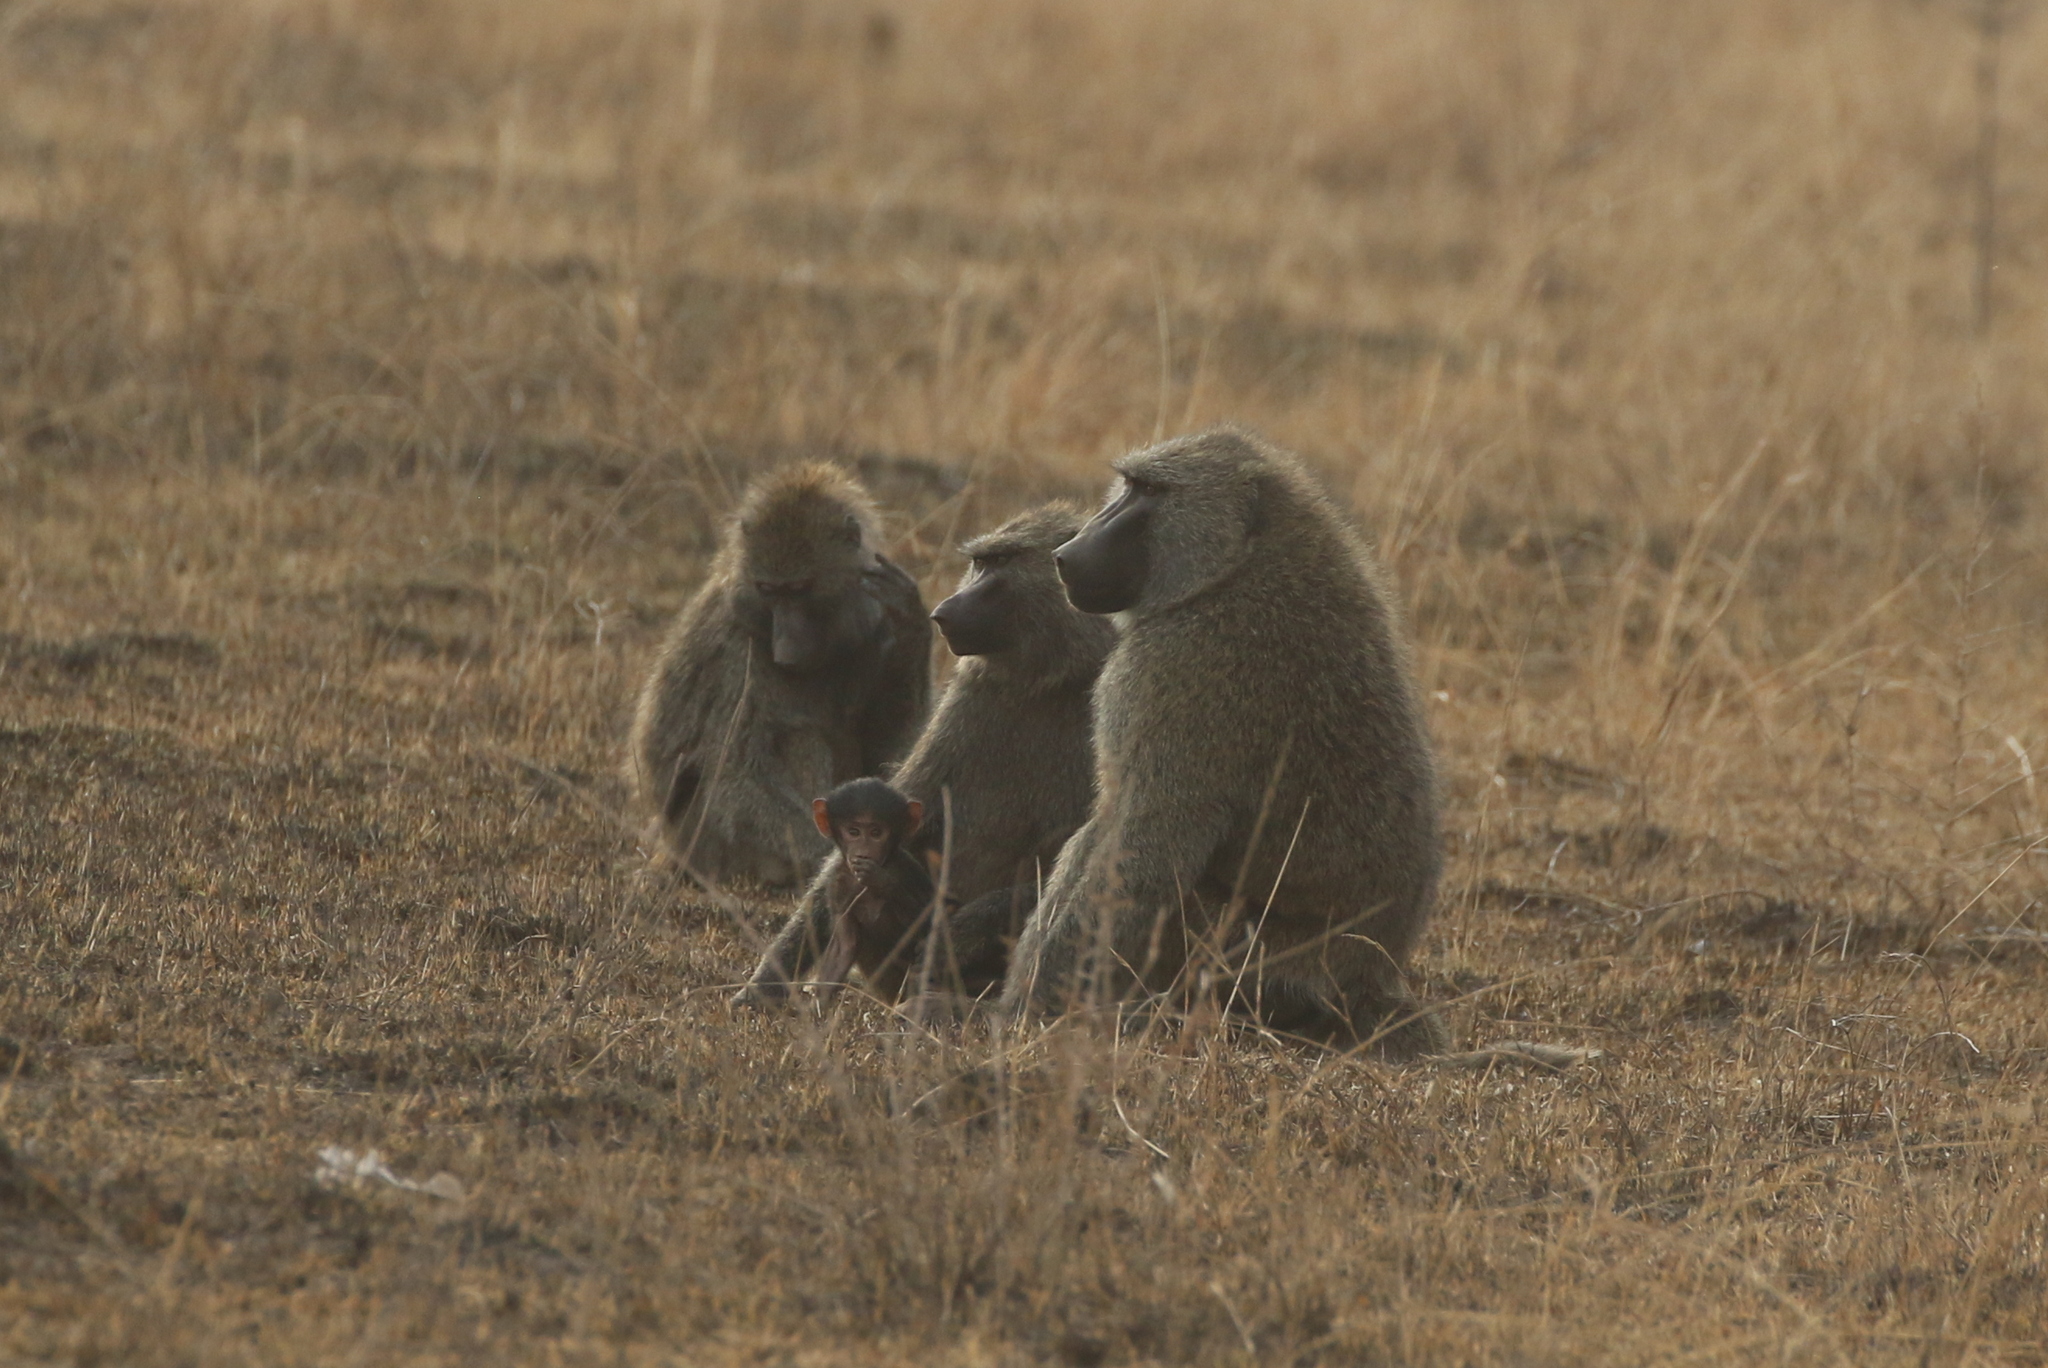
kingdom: Animalia
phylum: Chordata
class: Mammalia
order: Primates
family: Cercopithecidae
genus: Papio
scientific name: Papio anubis
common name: Olive baboon
